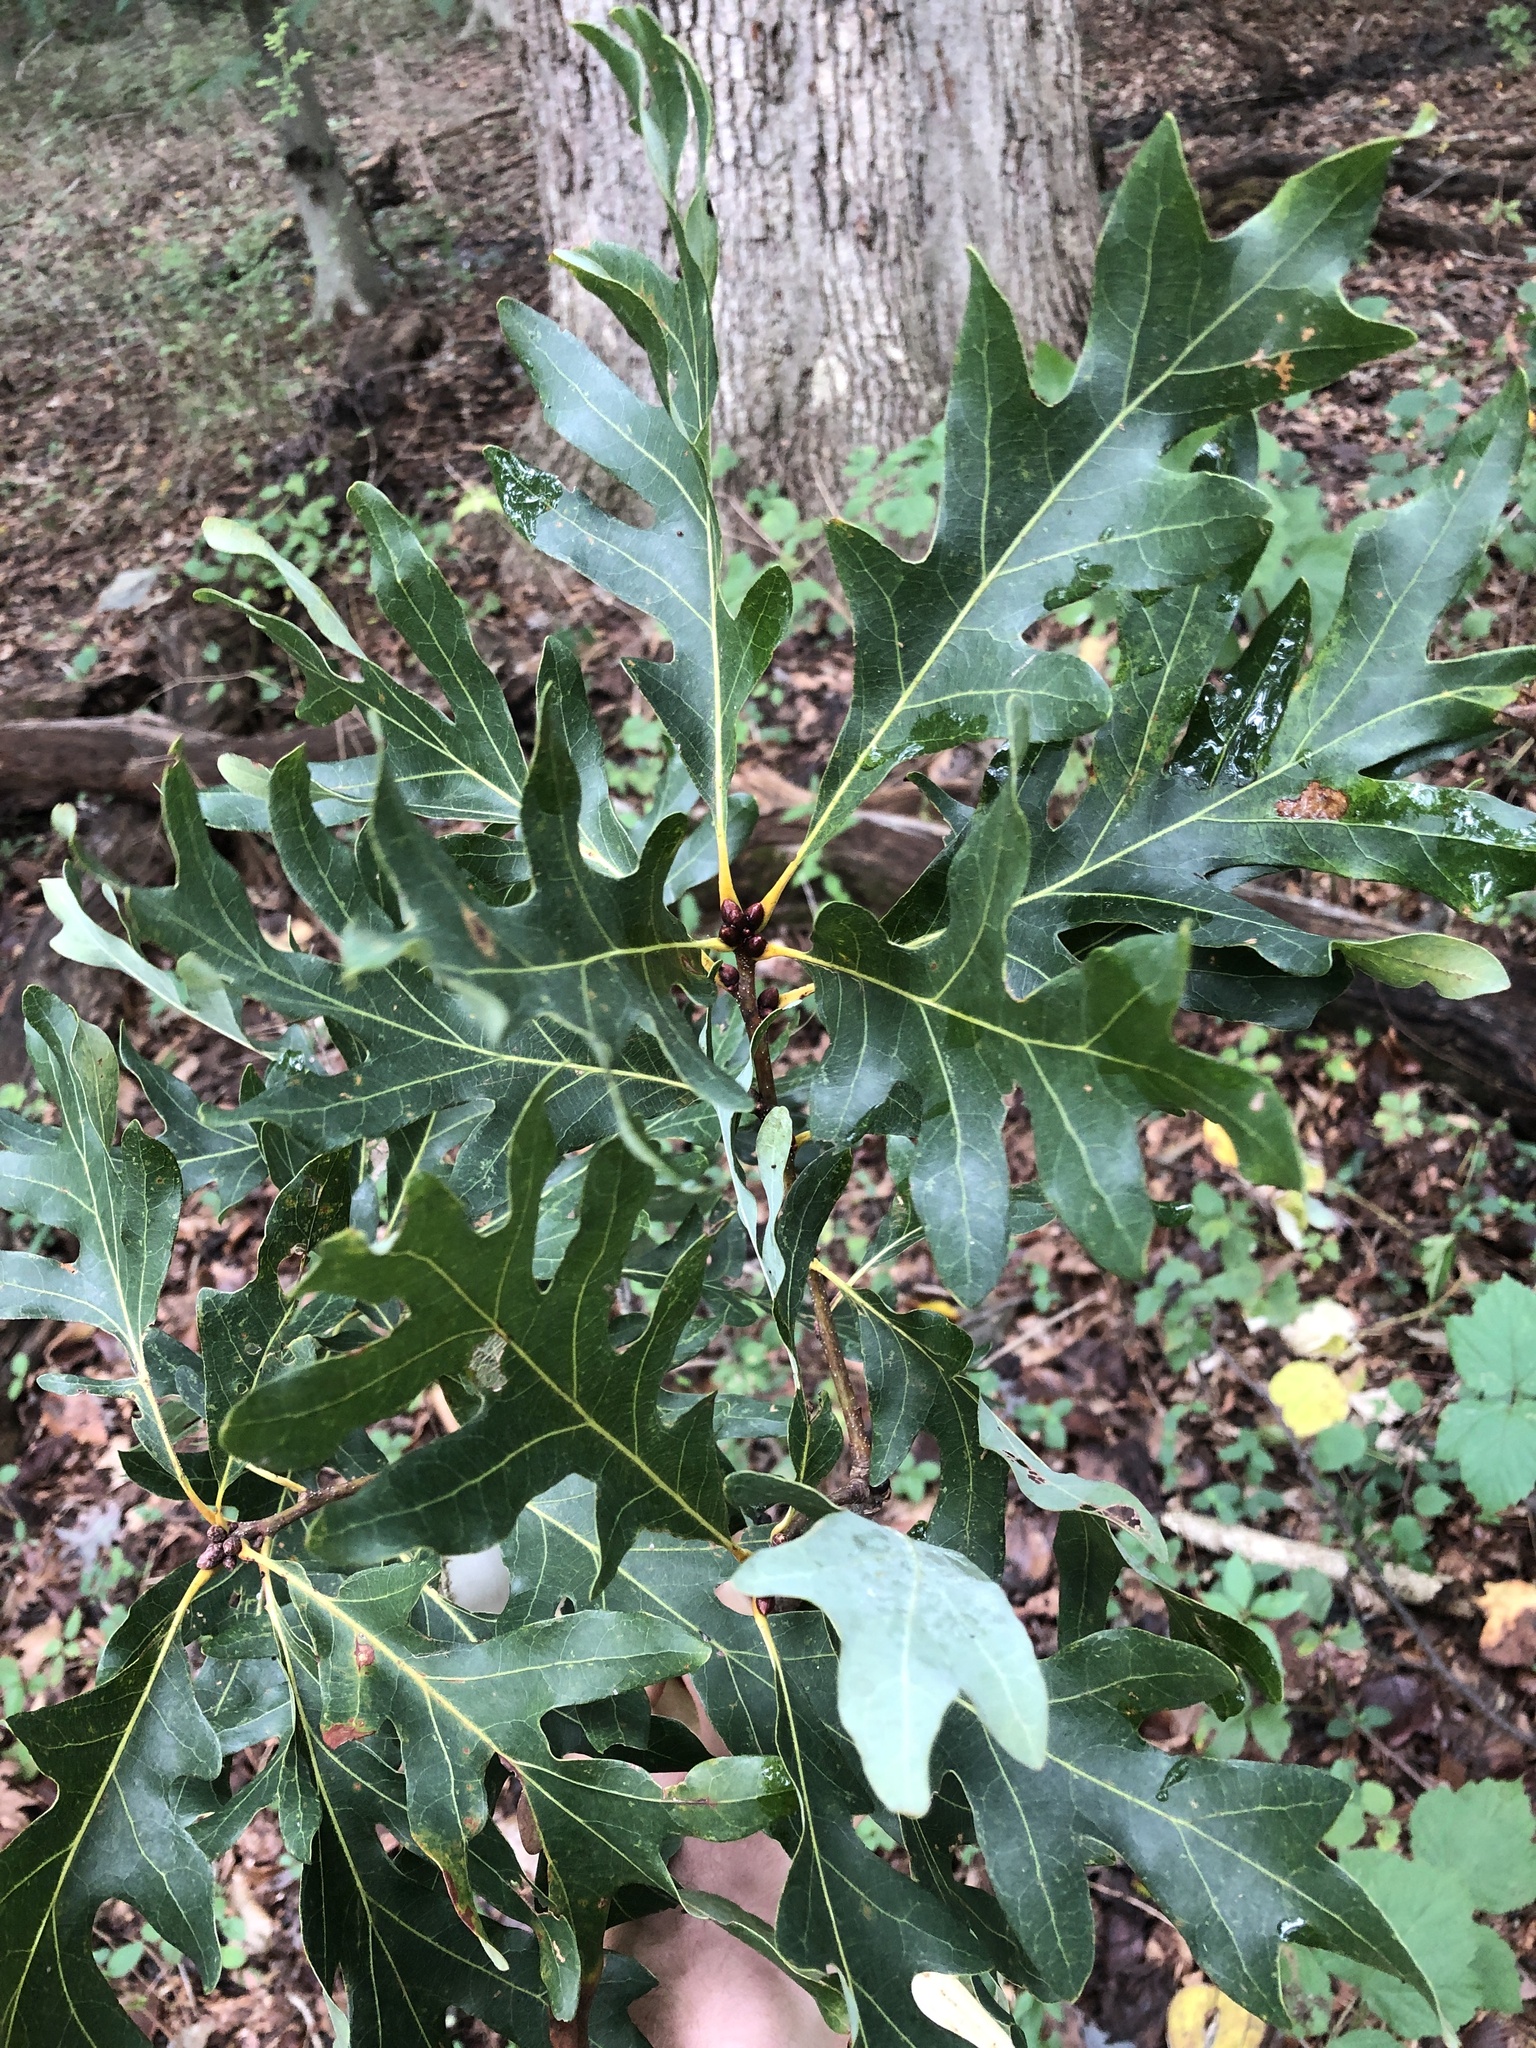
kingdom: Plantae
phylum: Tracheophyta
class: Magnoliopsida
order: Fagales
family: Fagaceae
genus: Quercus
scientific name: Quercus alba
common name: White oak
